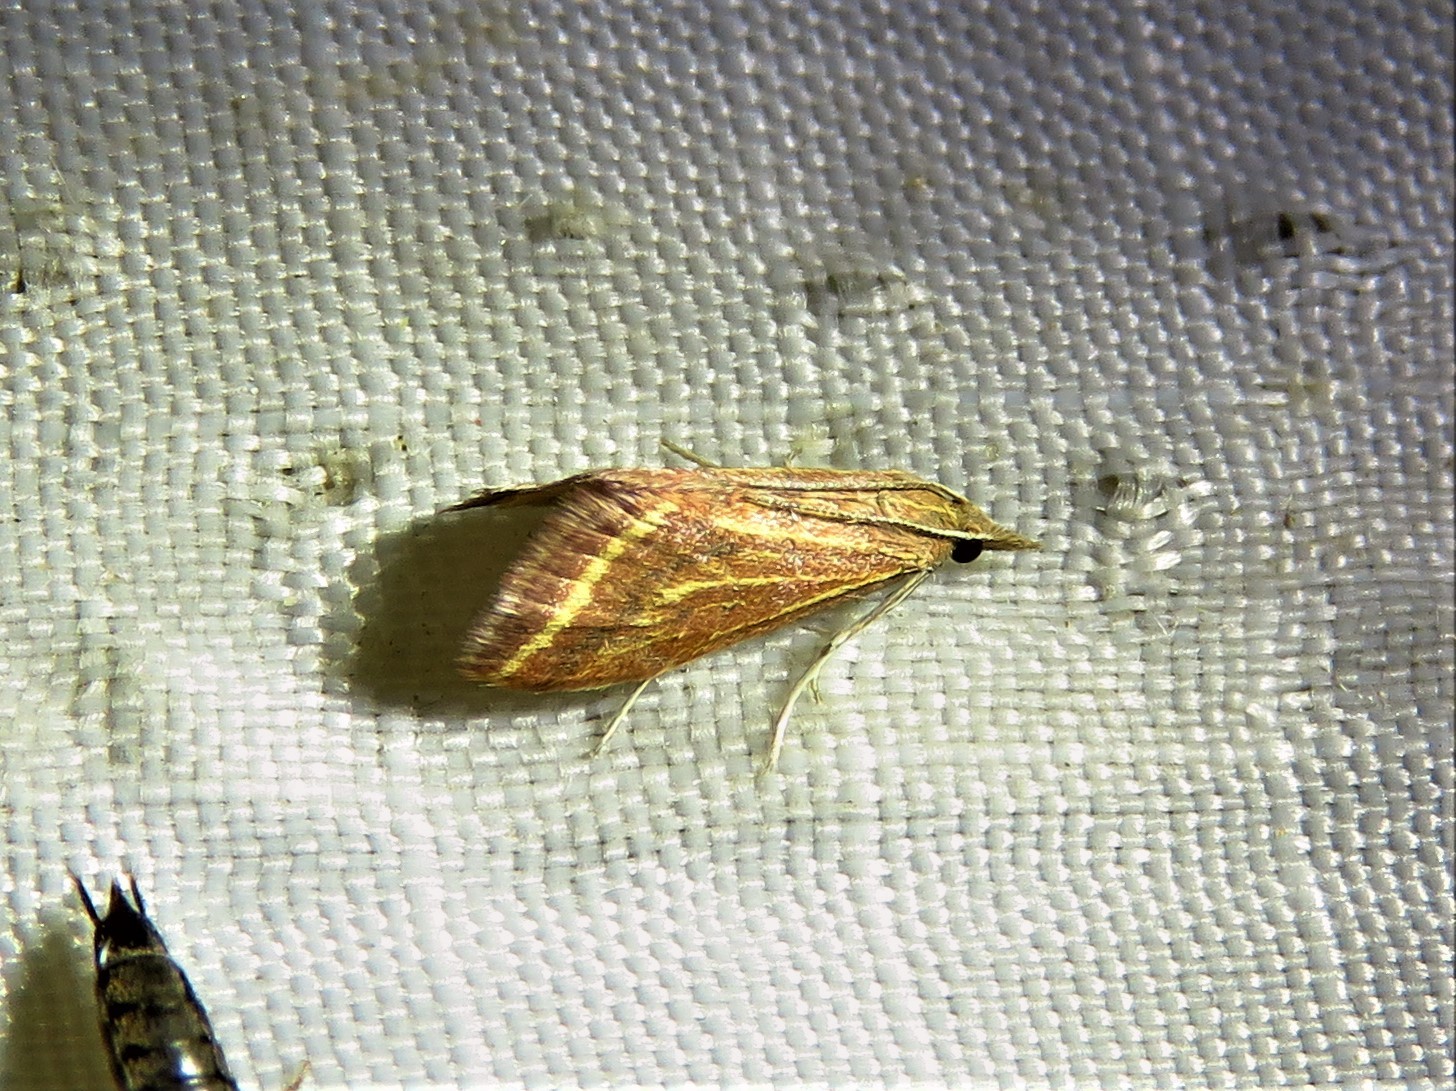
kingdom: Animalia
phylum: Arthropoda
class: Insecta
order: Lepidoptera
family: Crambidae
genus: Microtheoris
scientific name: Microtheoris ophionalis
